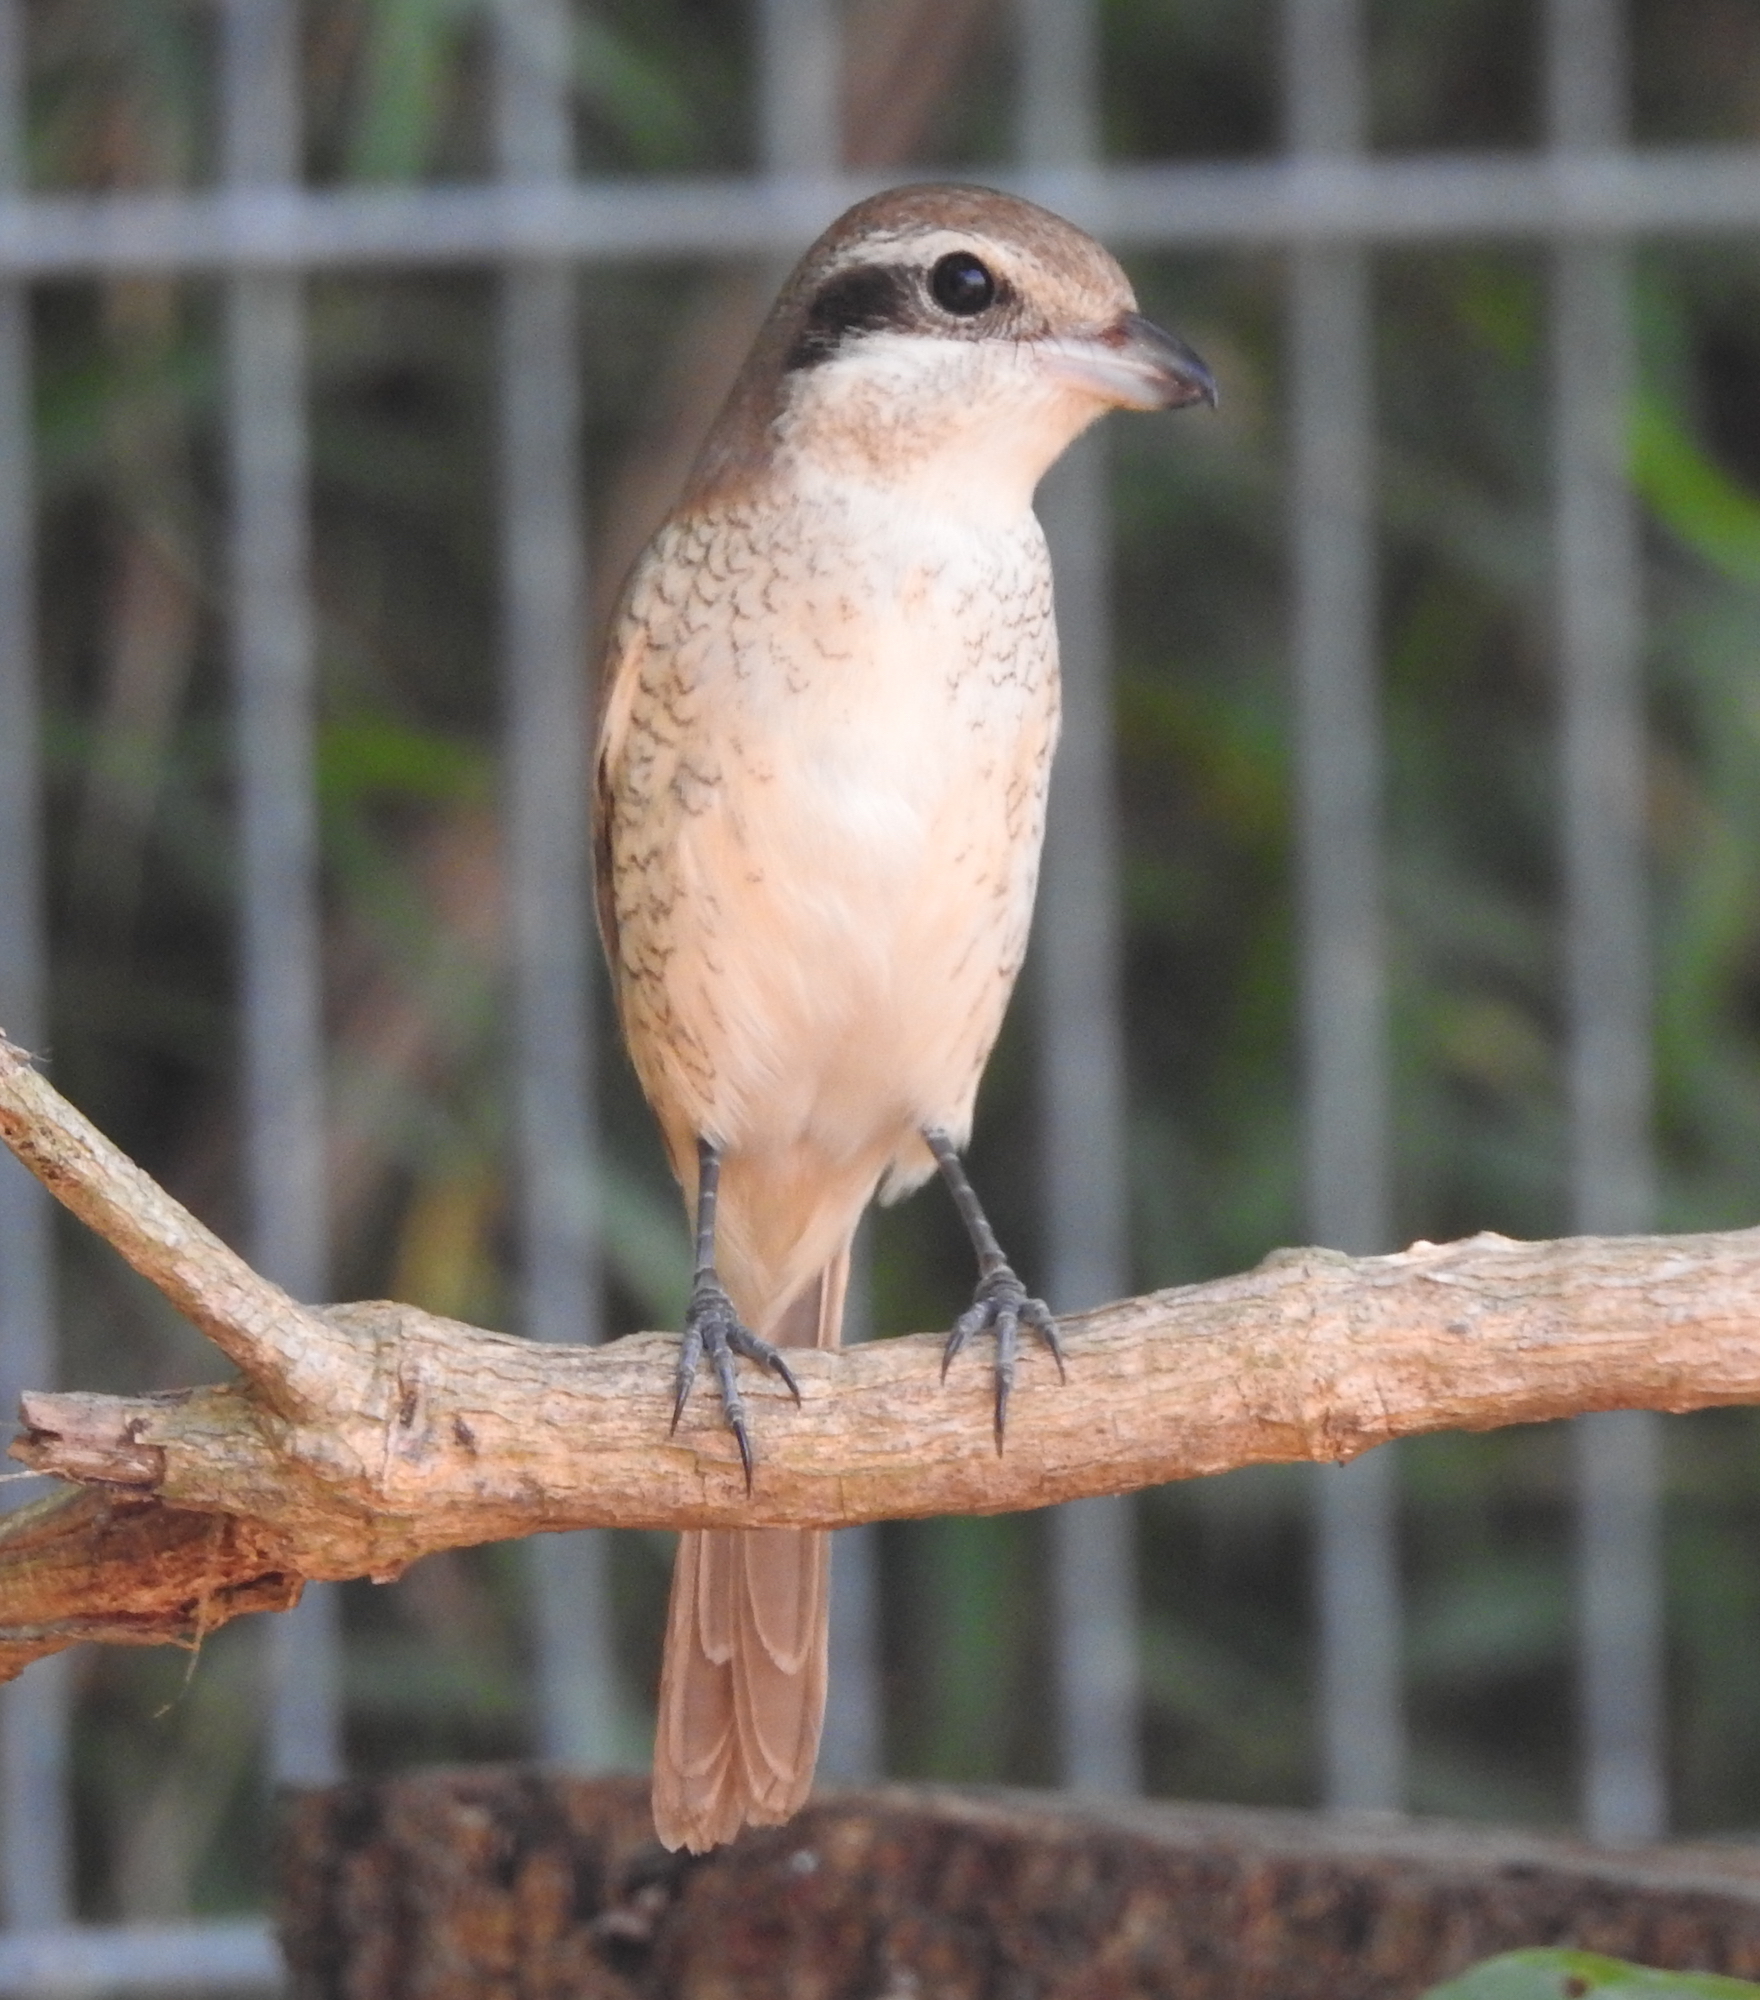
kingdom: Animalia
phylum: Chordata
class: Aves
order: Passeriformes
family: Laniidae
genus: Lanius
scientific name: Lanius cristatus
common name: Brown shrike
